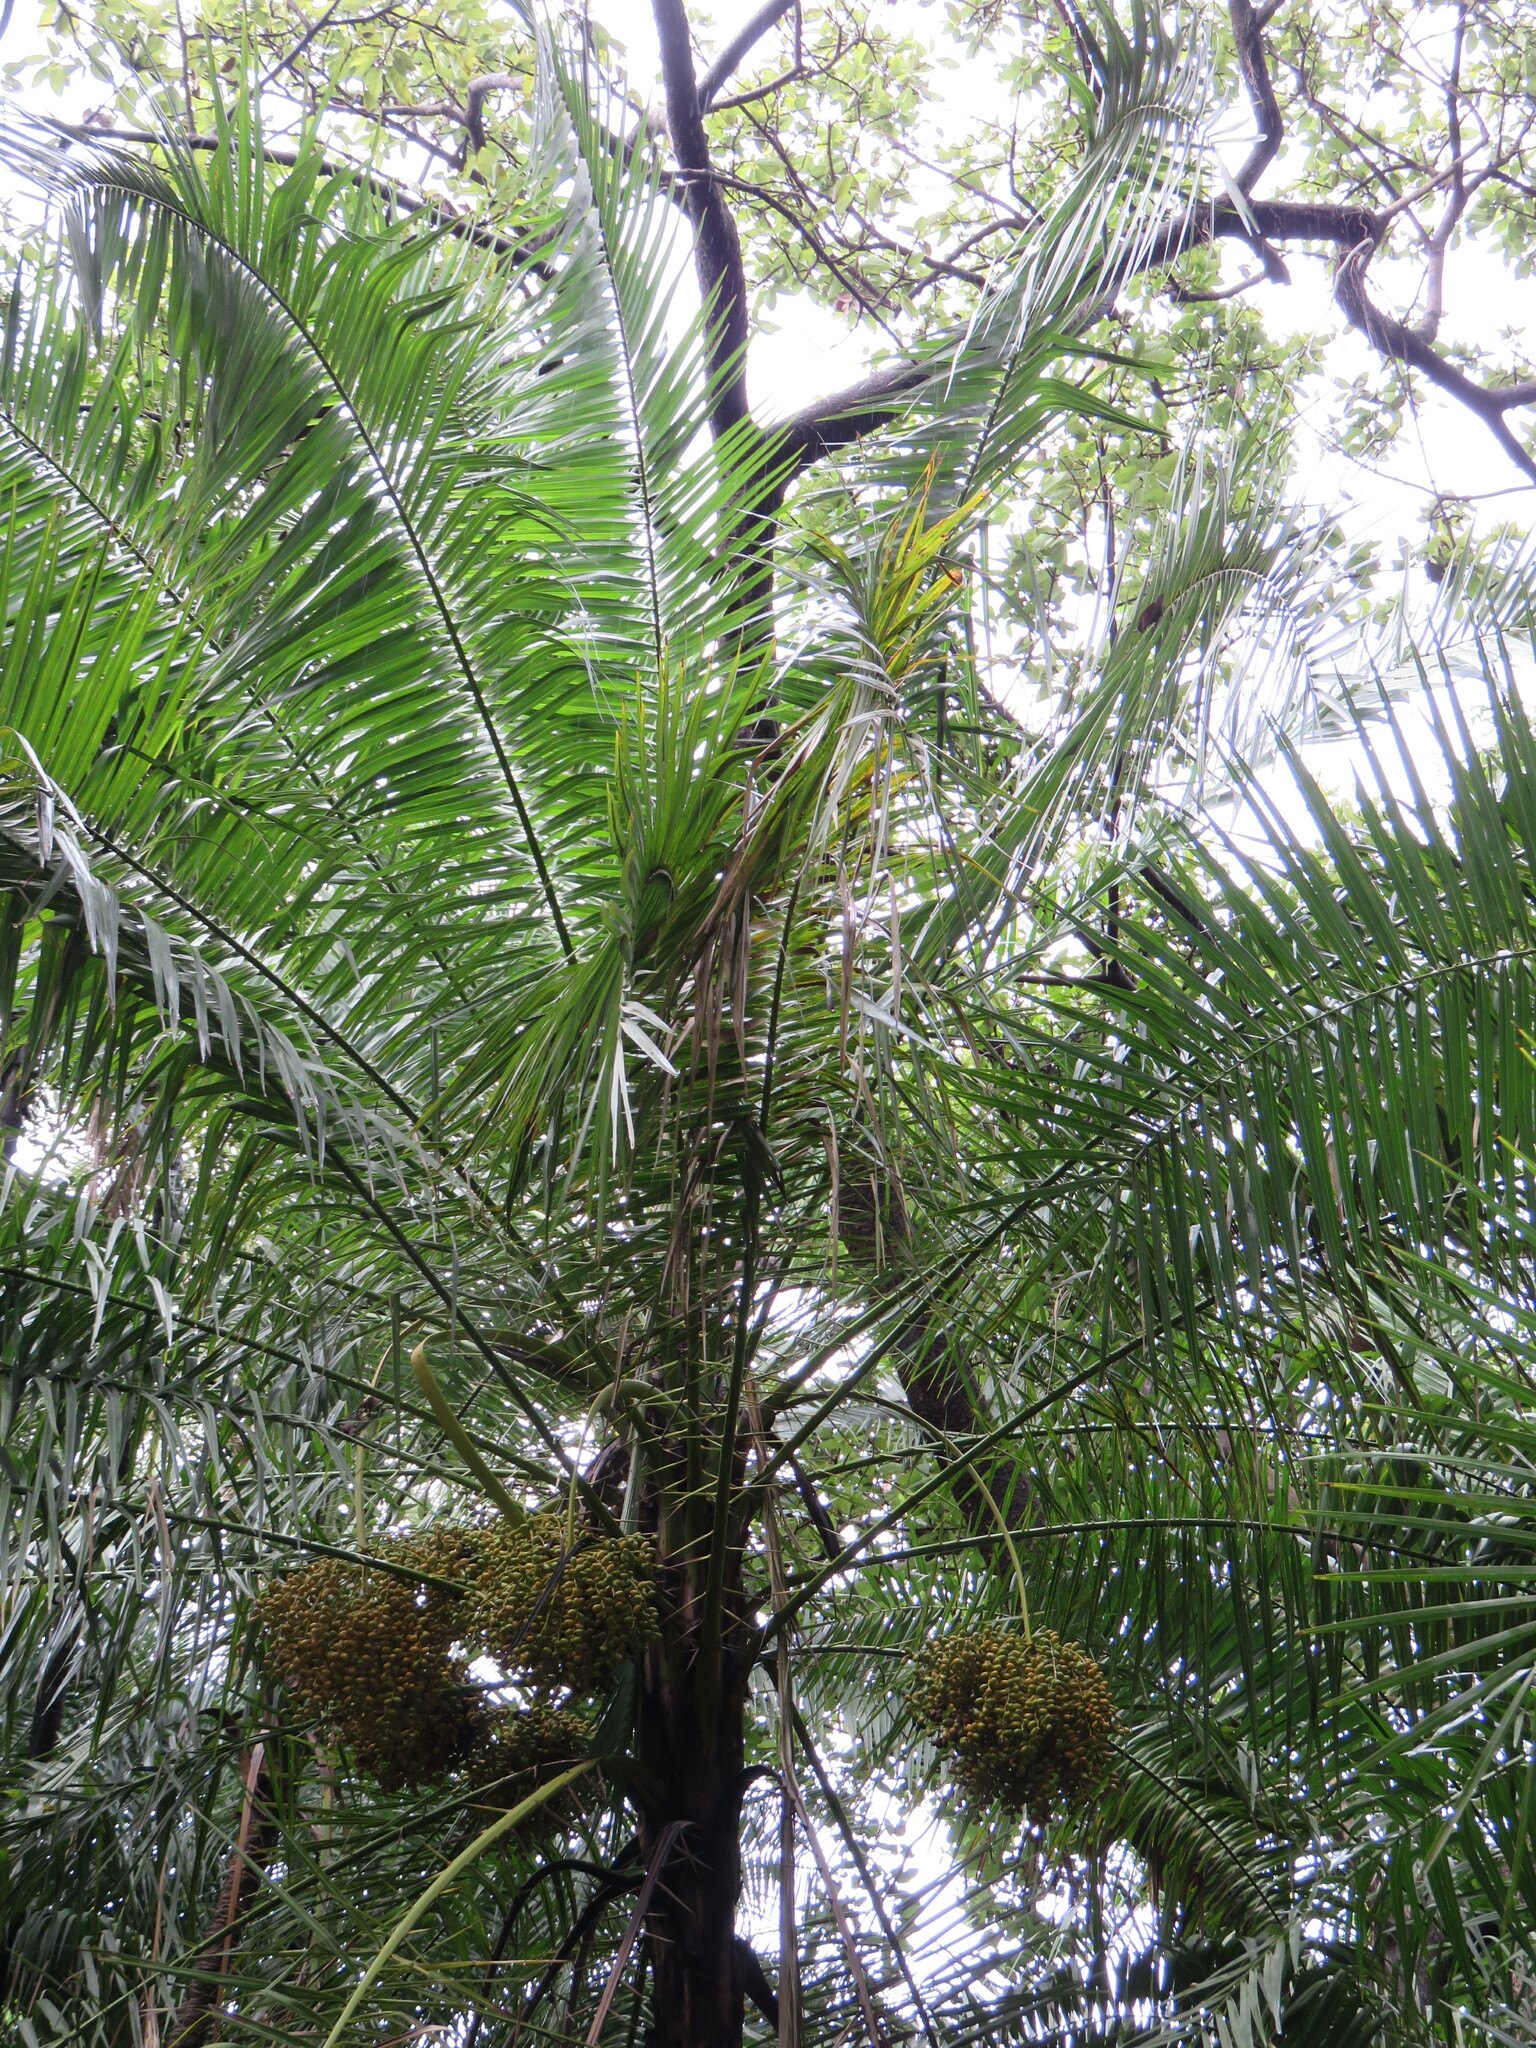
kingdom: Plantae
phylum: Tracheophyta
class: Liliopsida
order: Arecales
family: Arecaceae
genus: Phoenix
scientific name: Phoenix reclinata
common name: Senegal date palm
